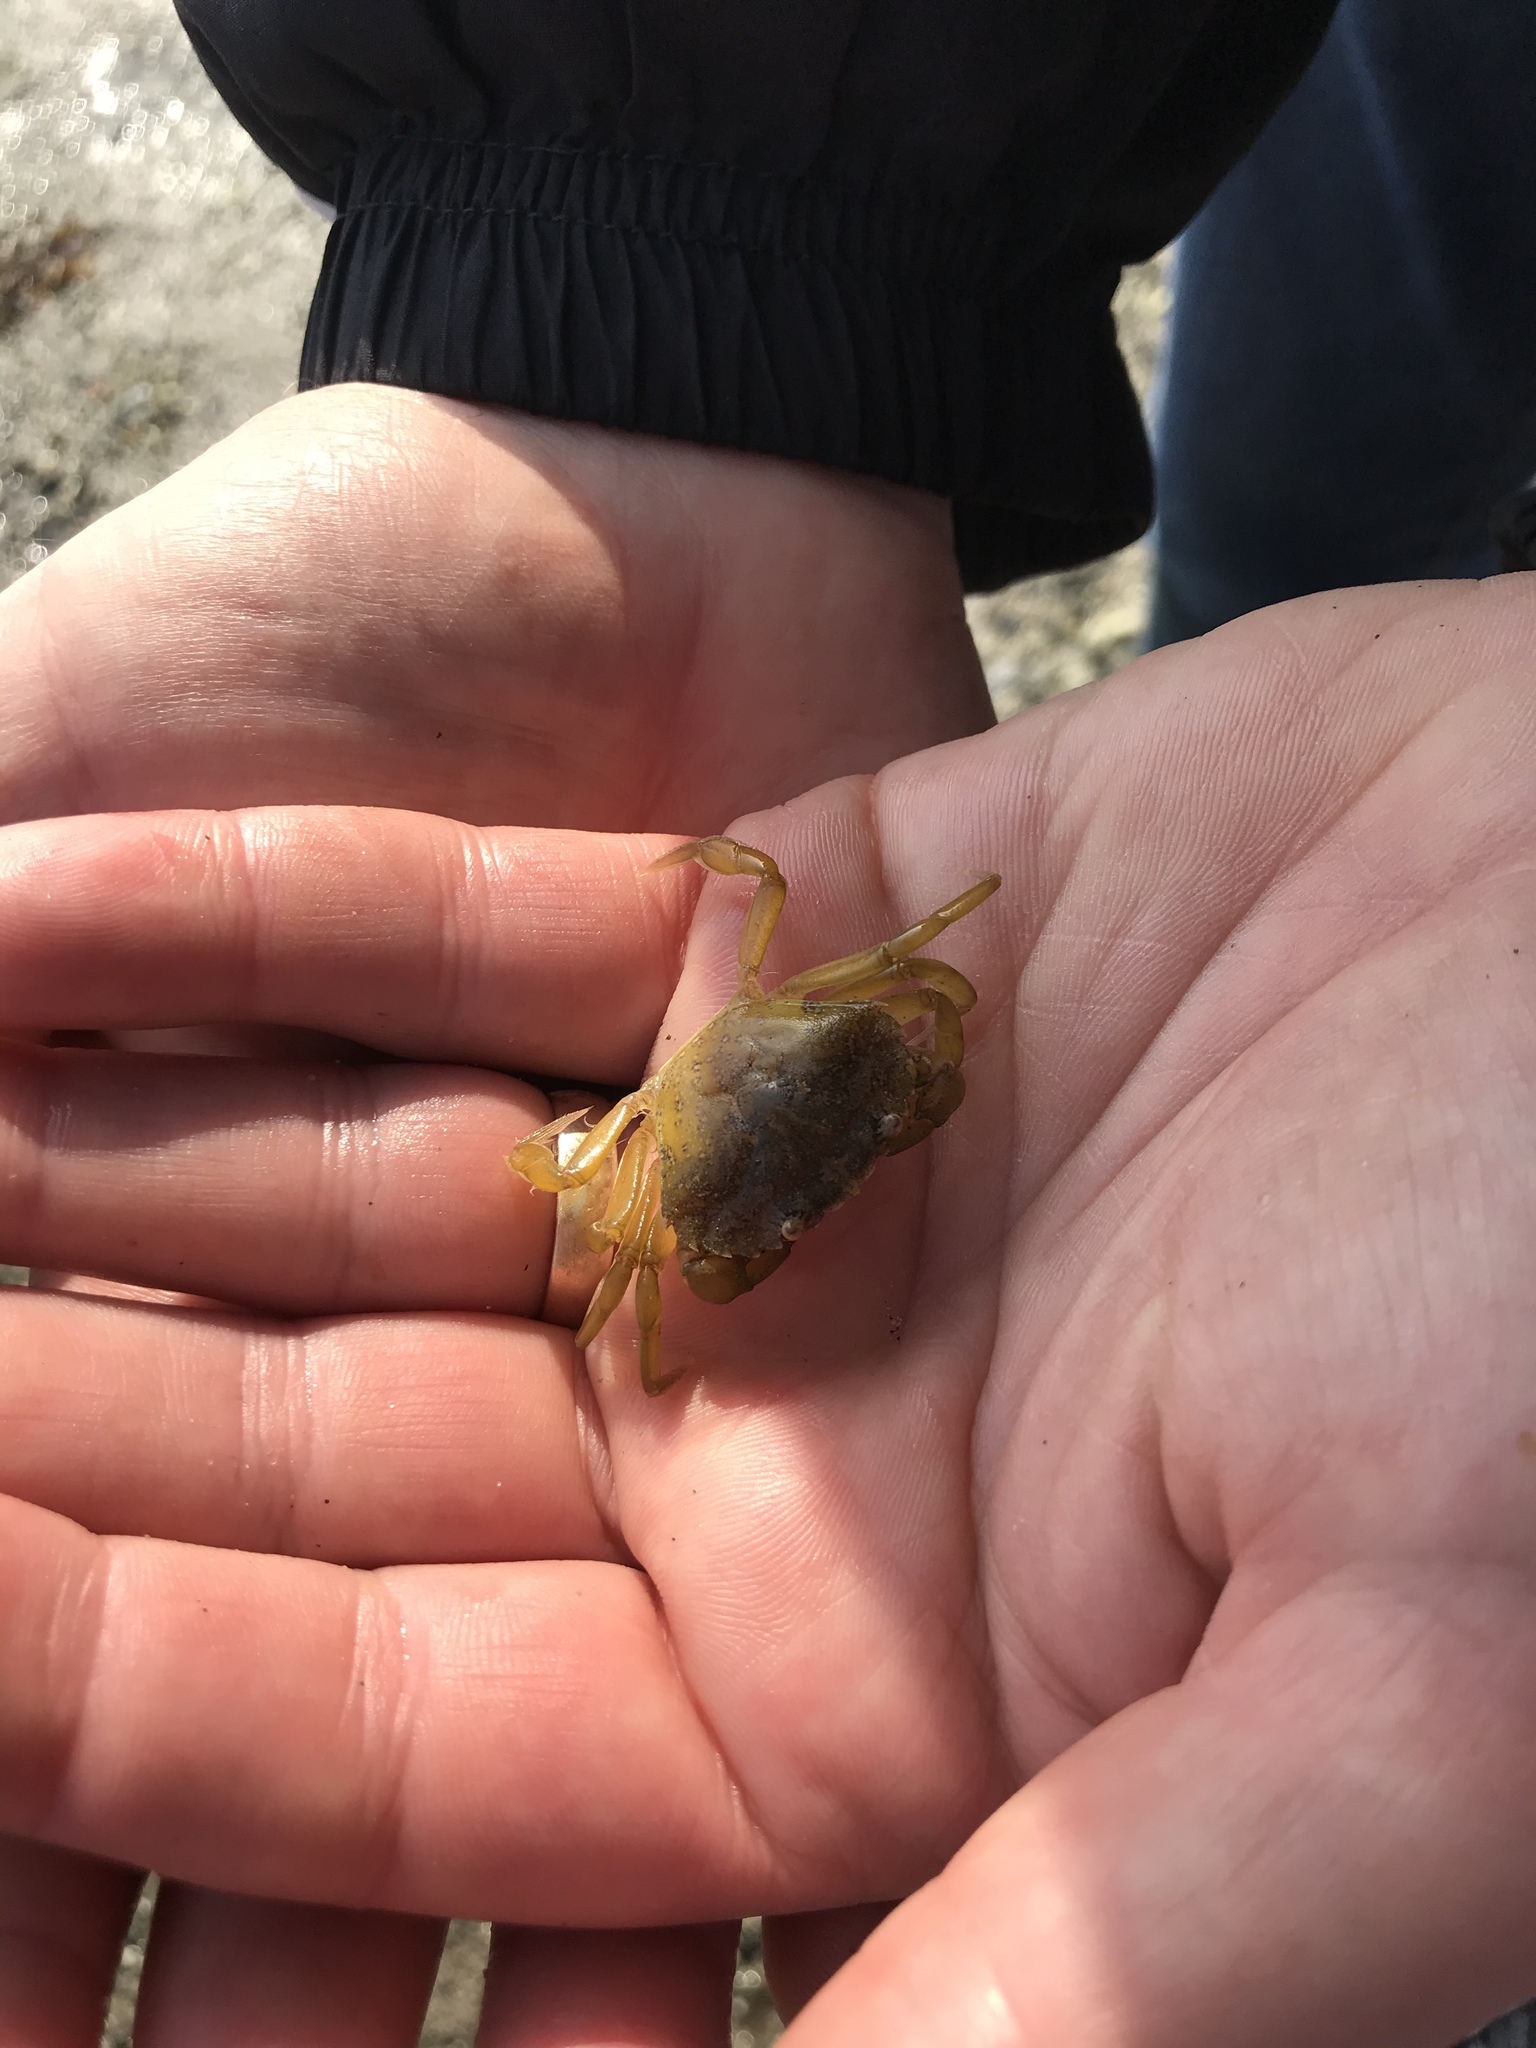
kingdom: Animalia
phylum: Arthropoda
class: Malacostraca
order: Decapoda
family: Carcinidae
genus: Carcinus
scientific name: Carcinus maenas
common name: European green crab
